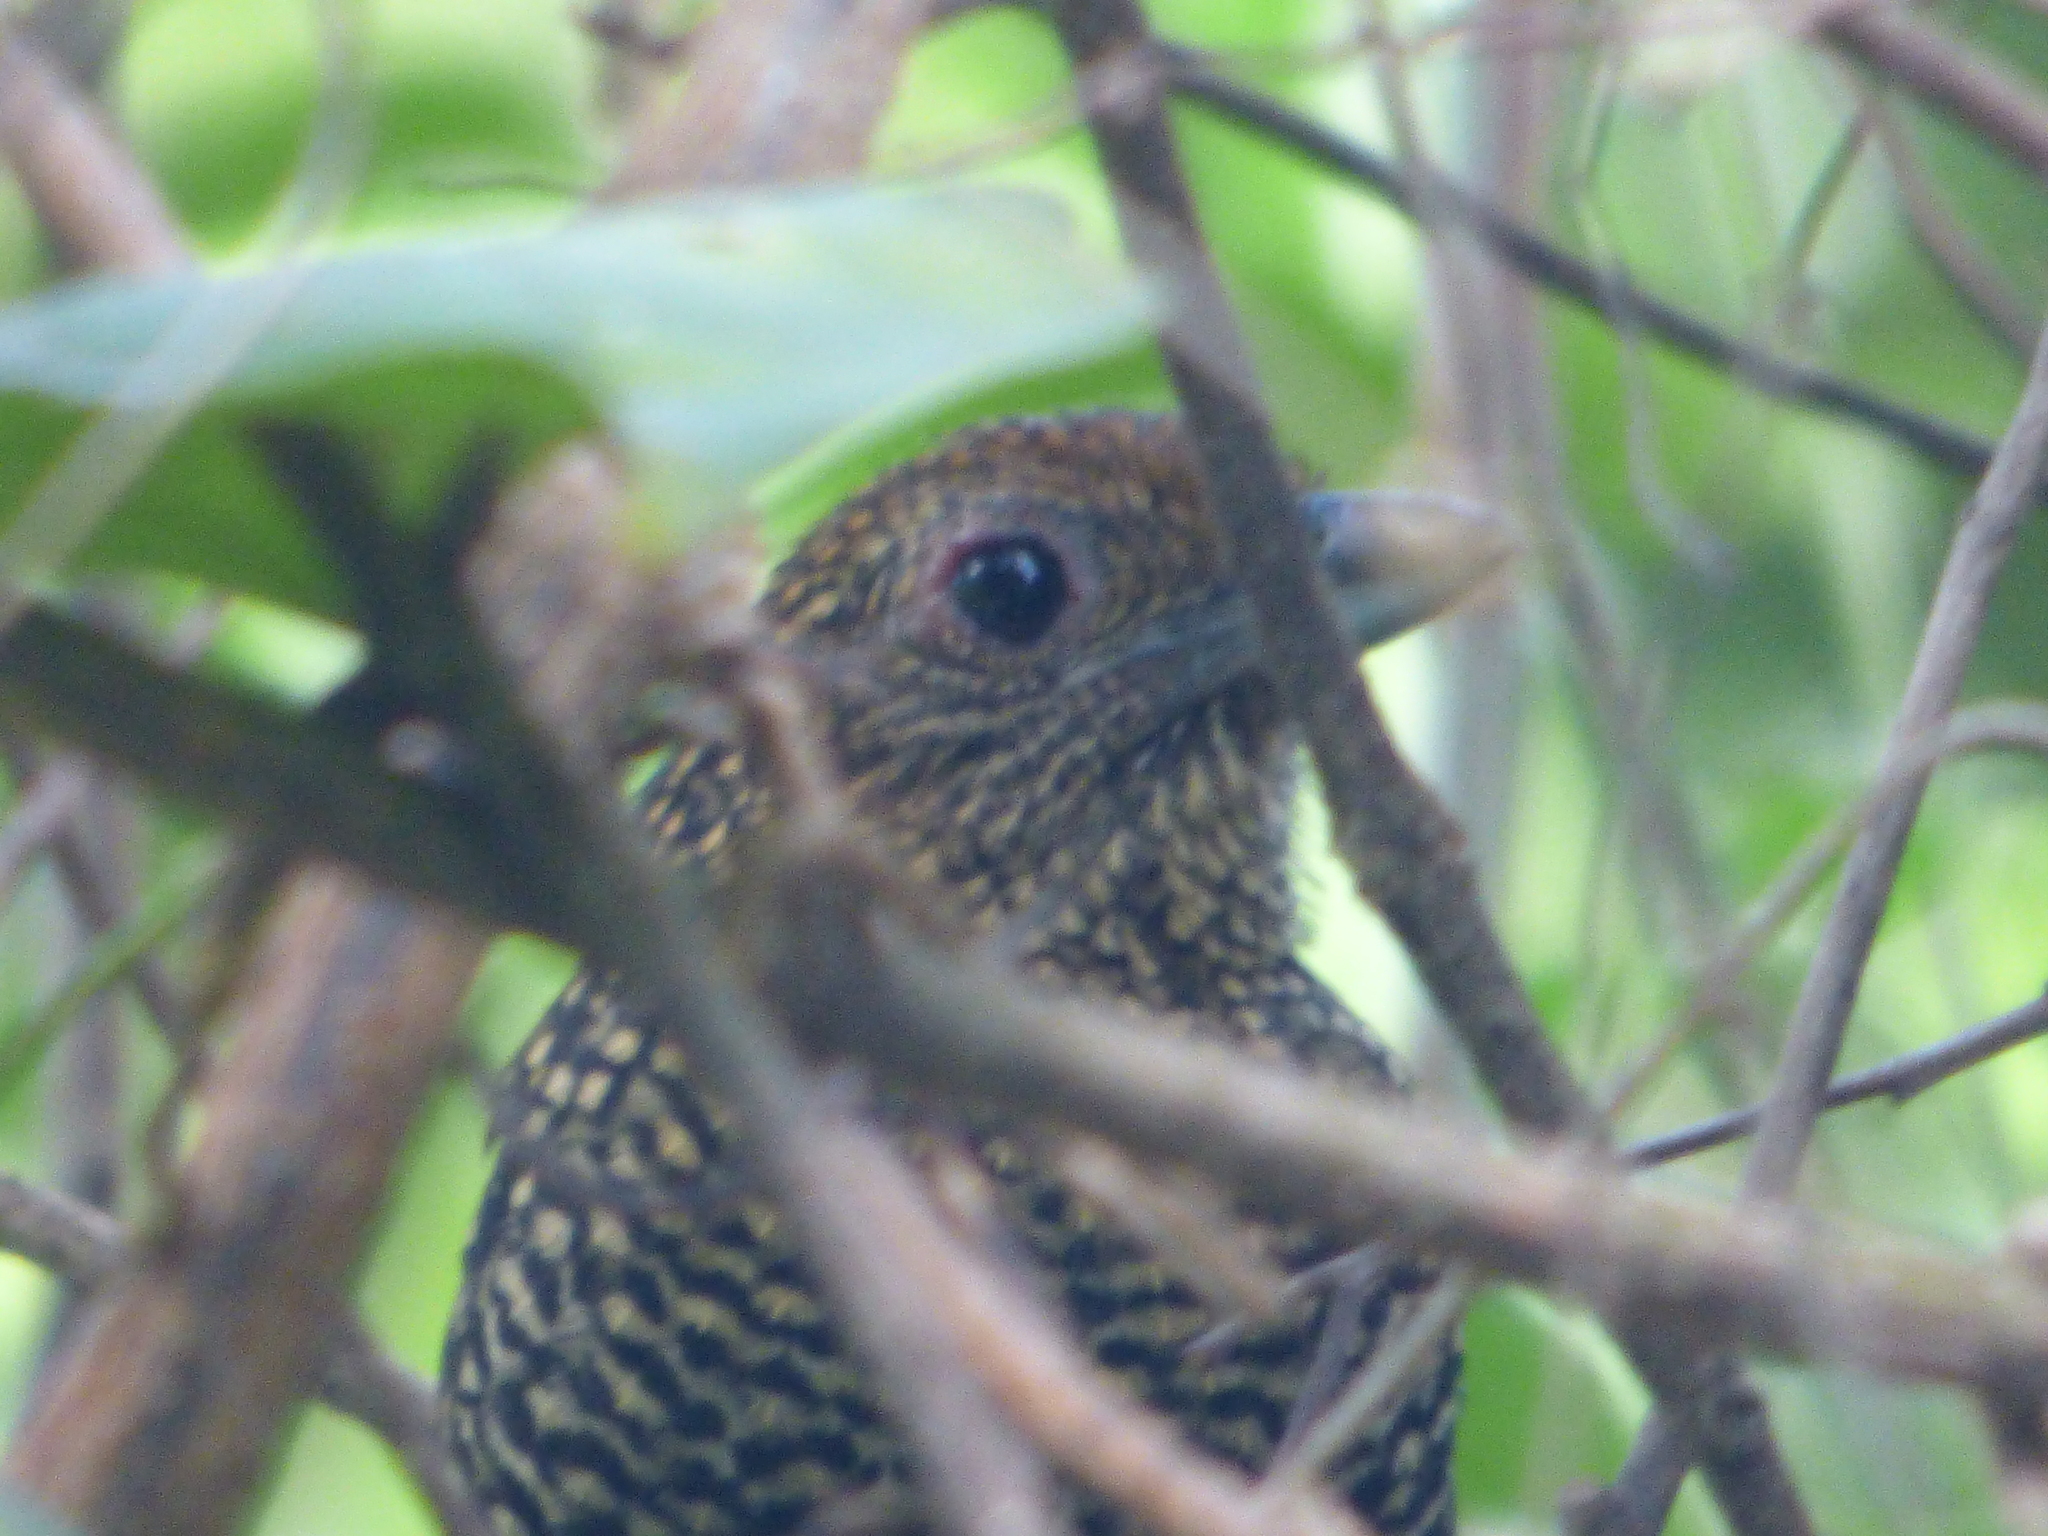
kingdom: Animalia
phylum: Chordata
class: Aves
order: Passeriformes
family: Thamnophilidae
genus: Mackenziaena
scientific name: Mackenziaena leachii
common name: Large-tailed antshrike
